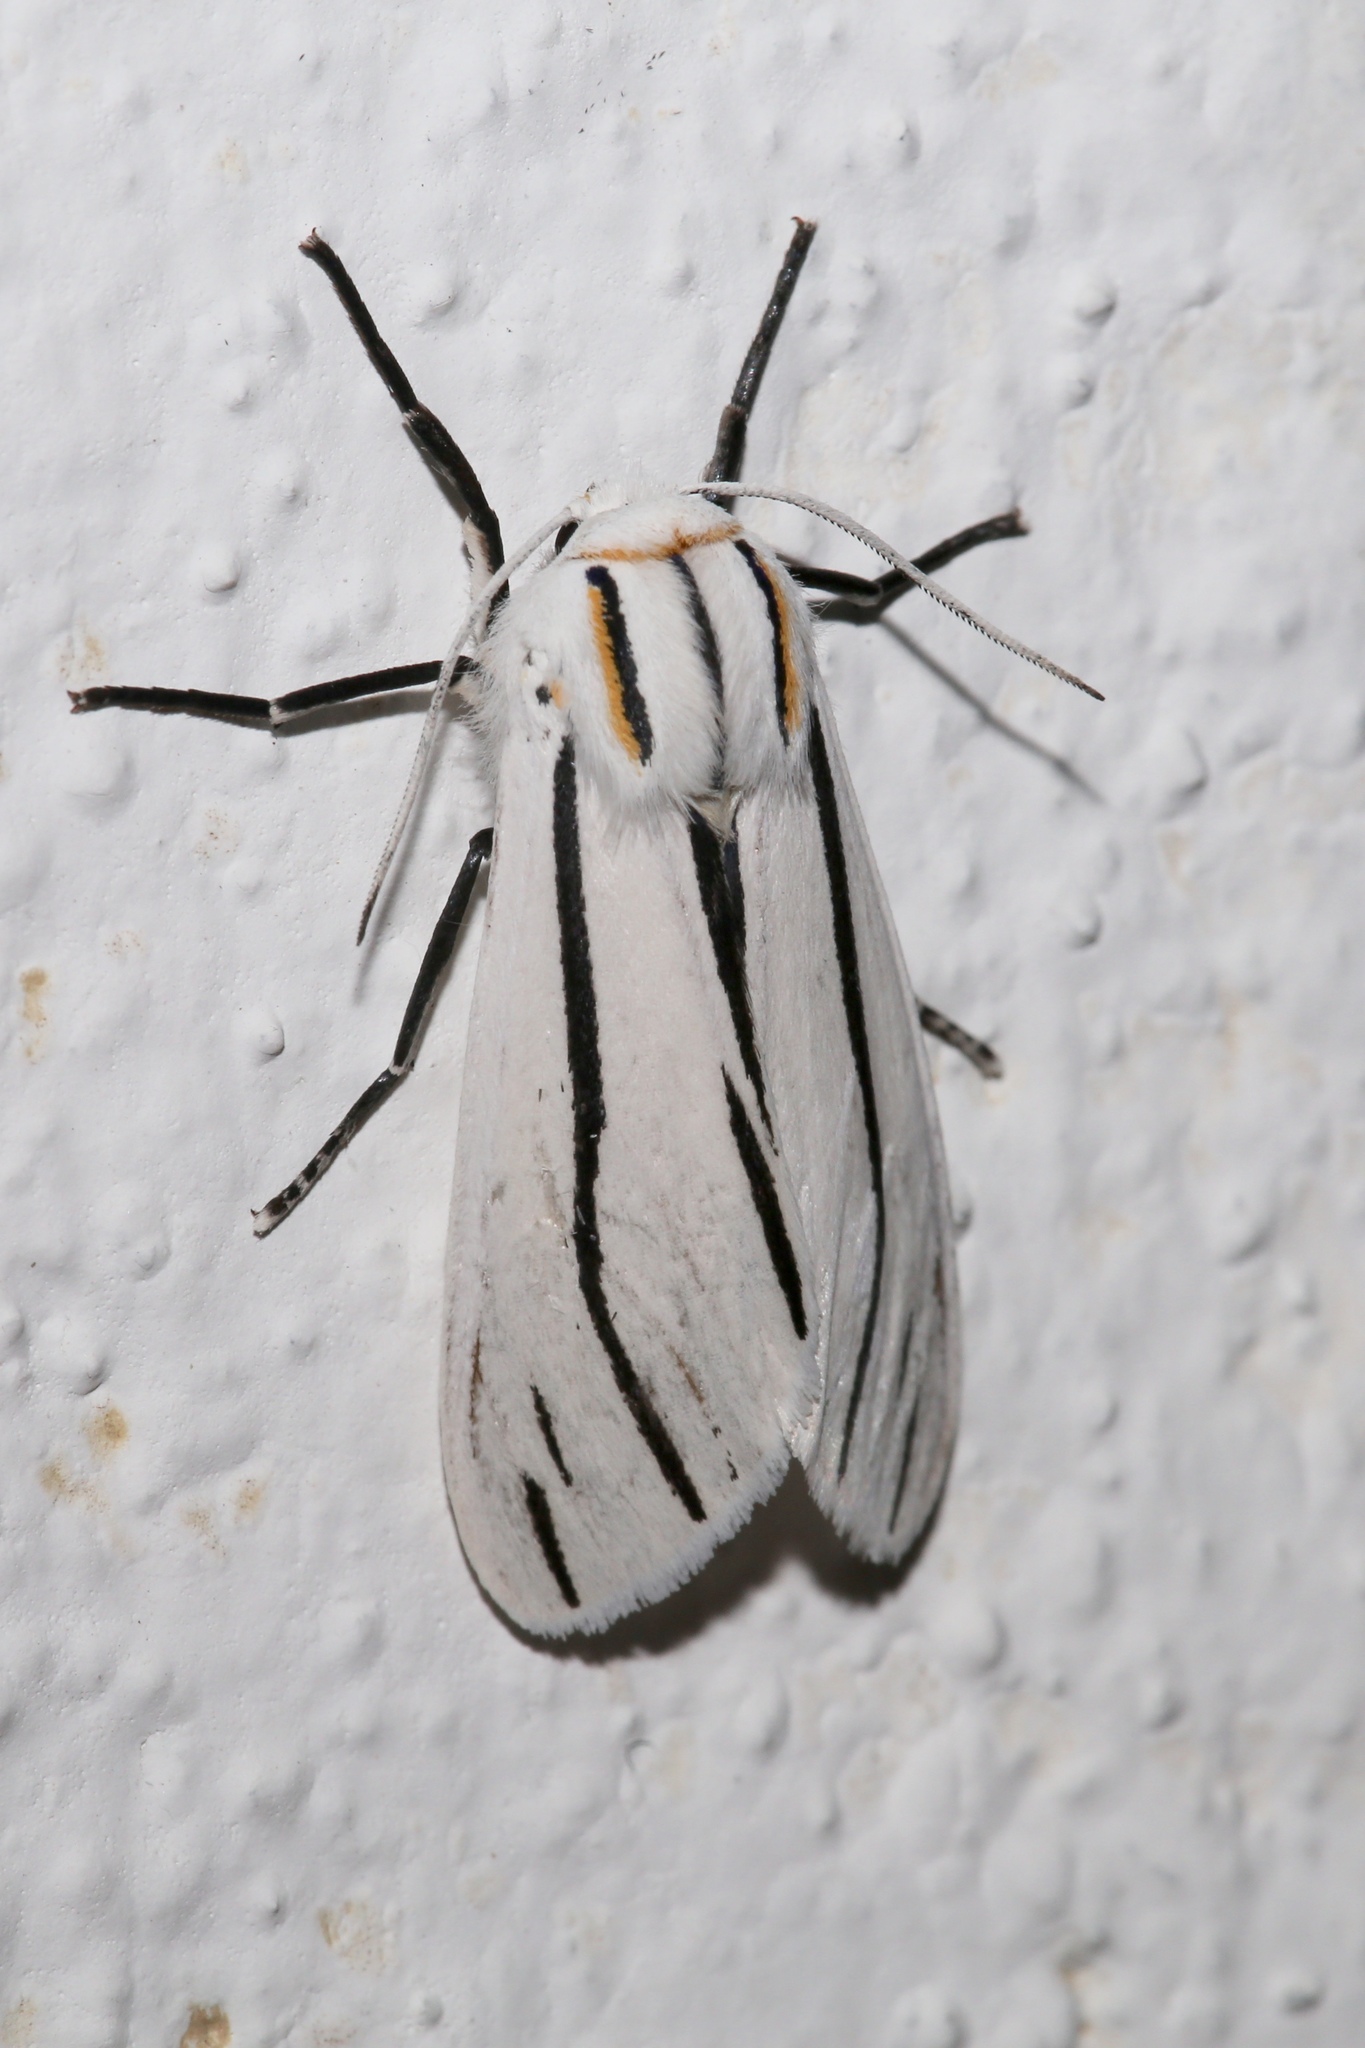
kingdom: Animalia
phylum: Arthropoda
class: Insecta
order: Lepidoptera
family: Erebidae
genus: Ectypia
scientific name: Ectypia clio
